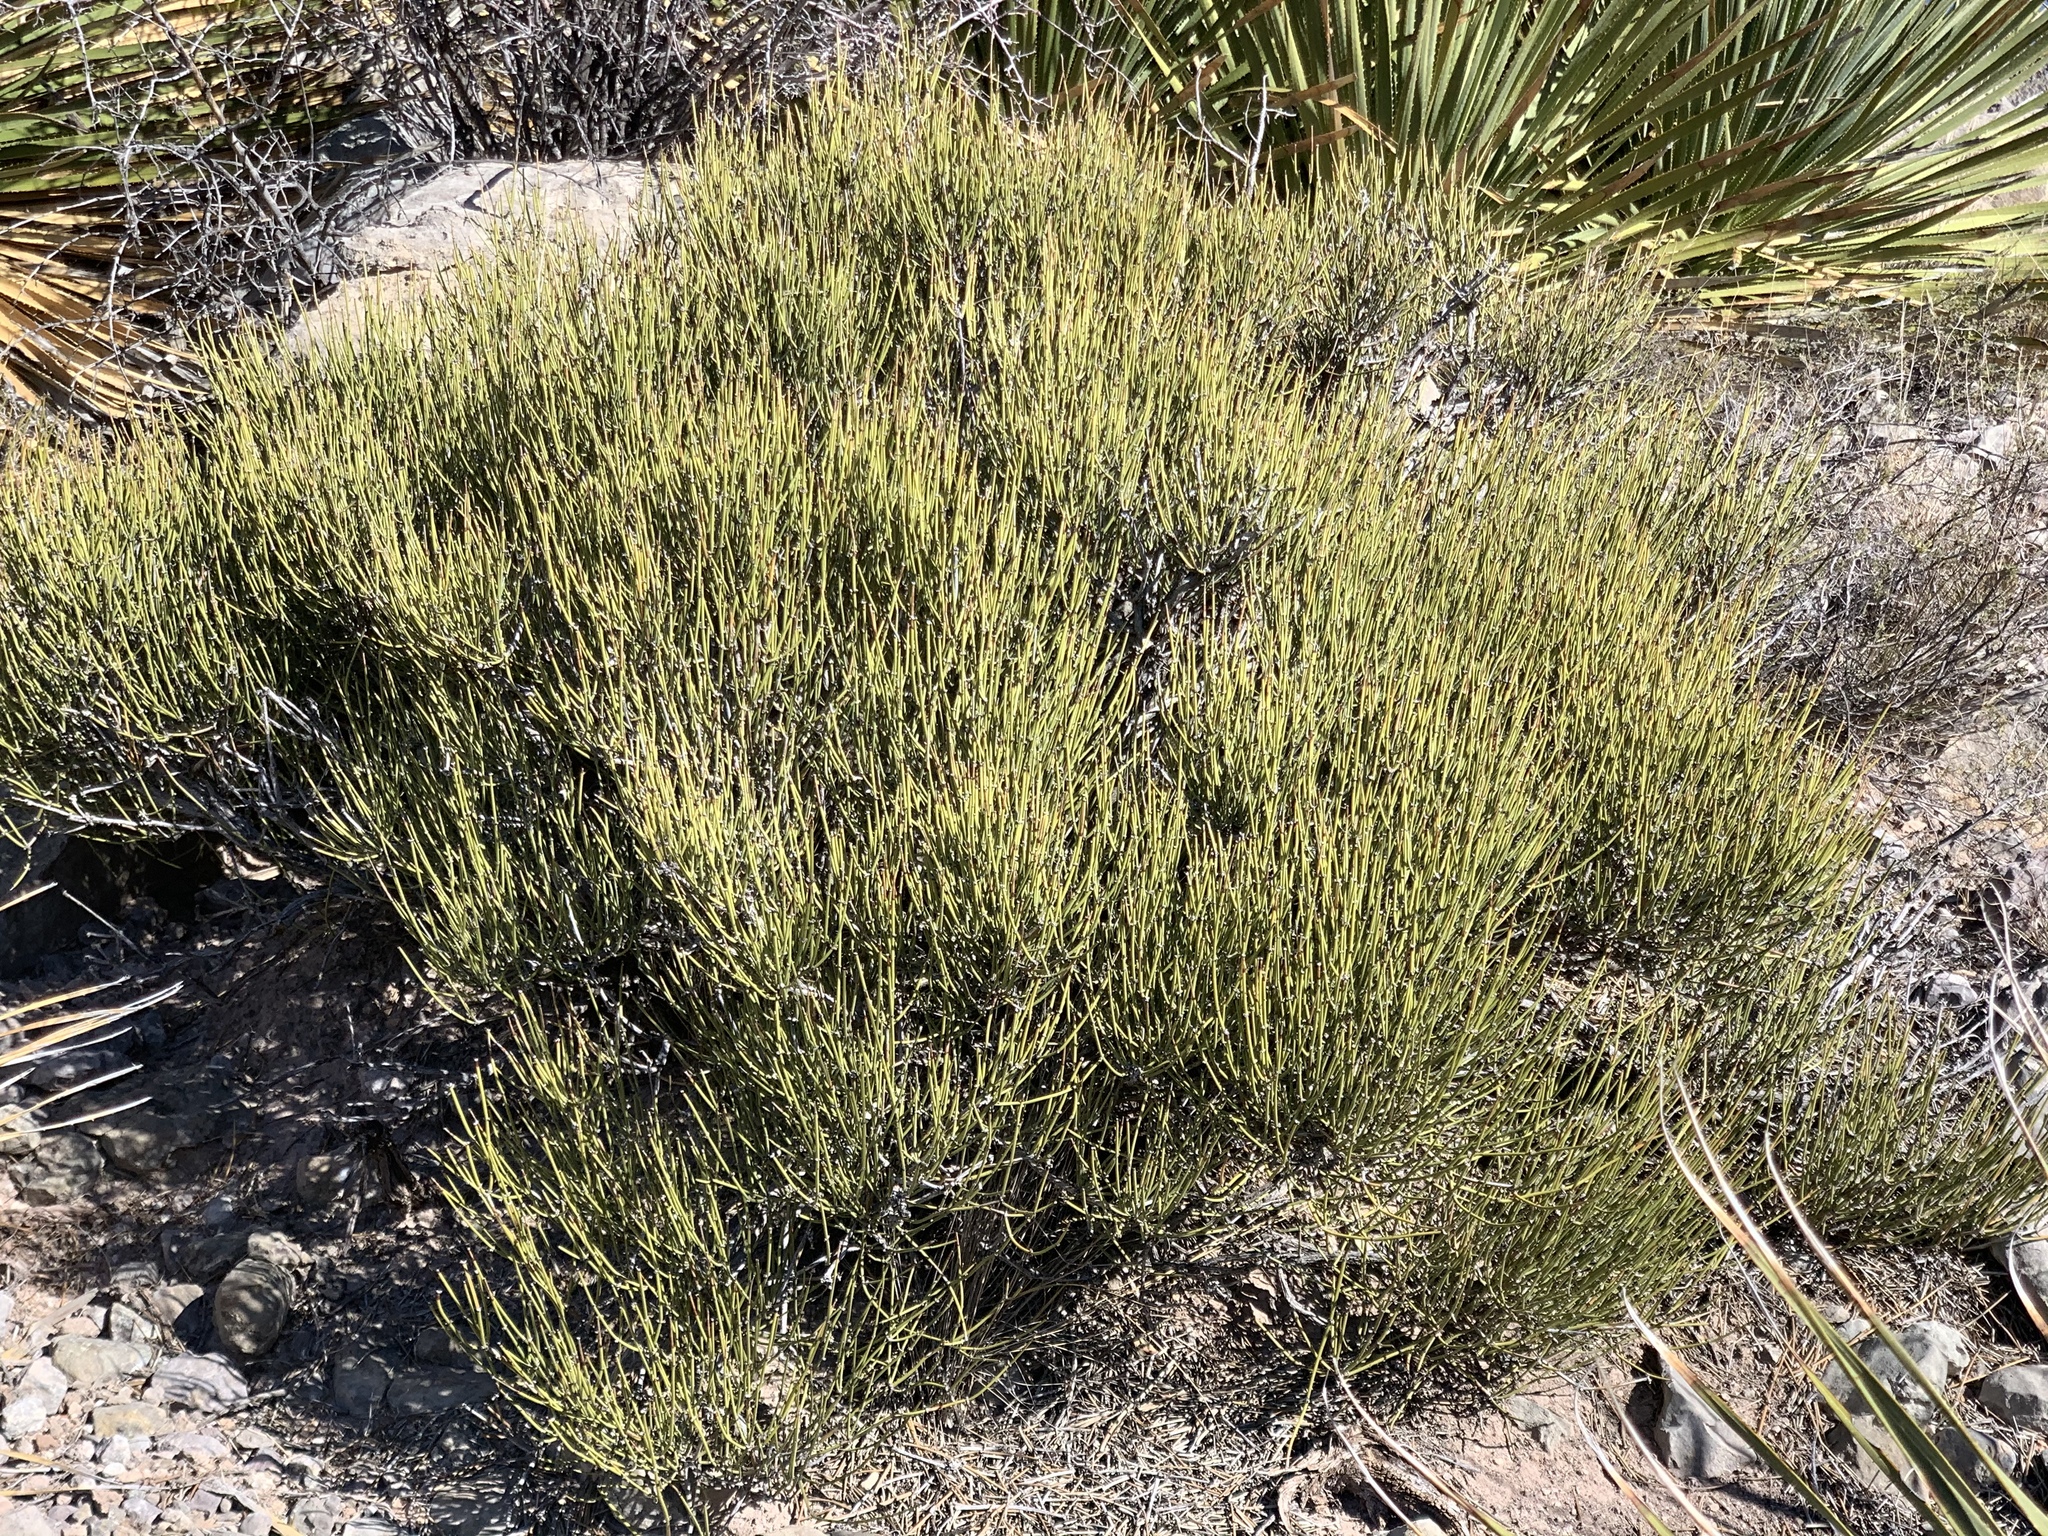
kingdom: Plantae
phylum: Tracheophyta
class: Gnetopsida
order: Ephedrales
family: Ephedraceae
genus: Ephedra
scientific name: Ephedra viridis
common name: Green ephedra
